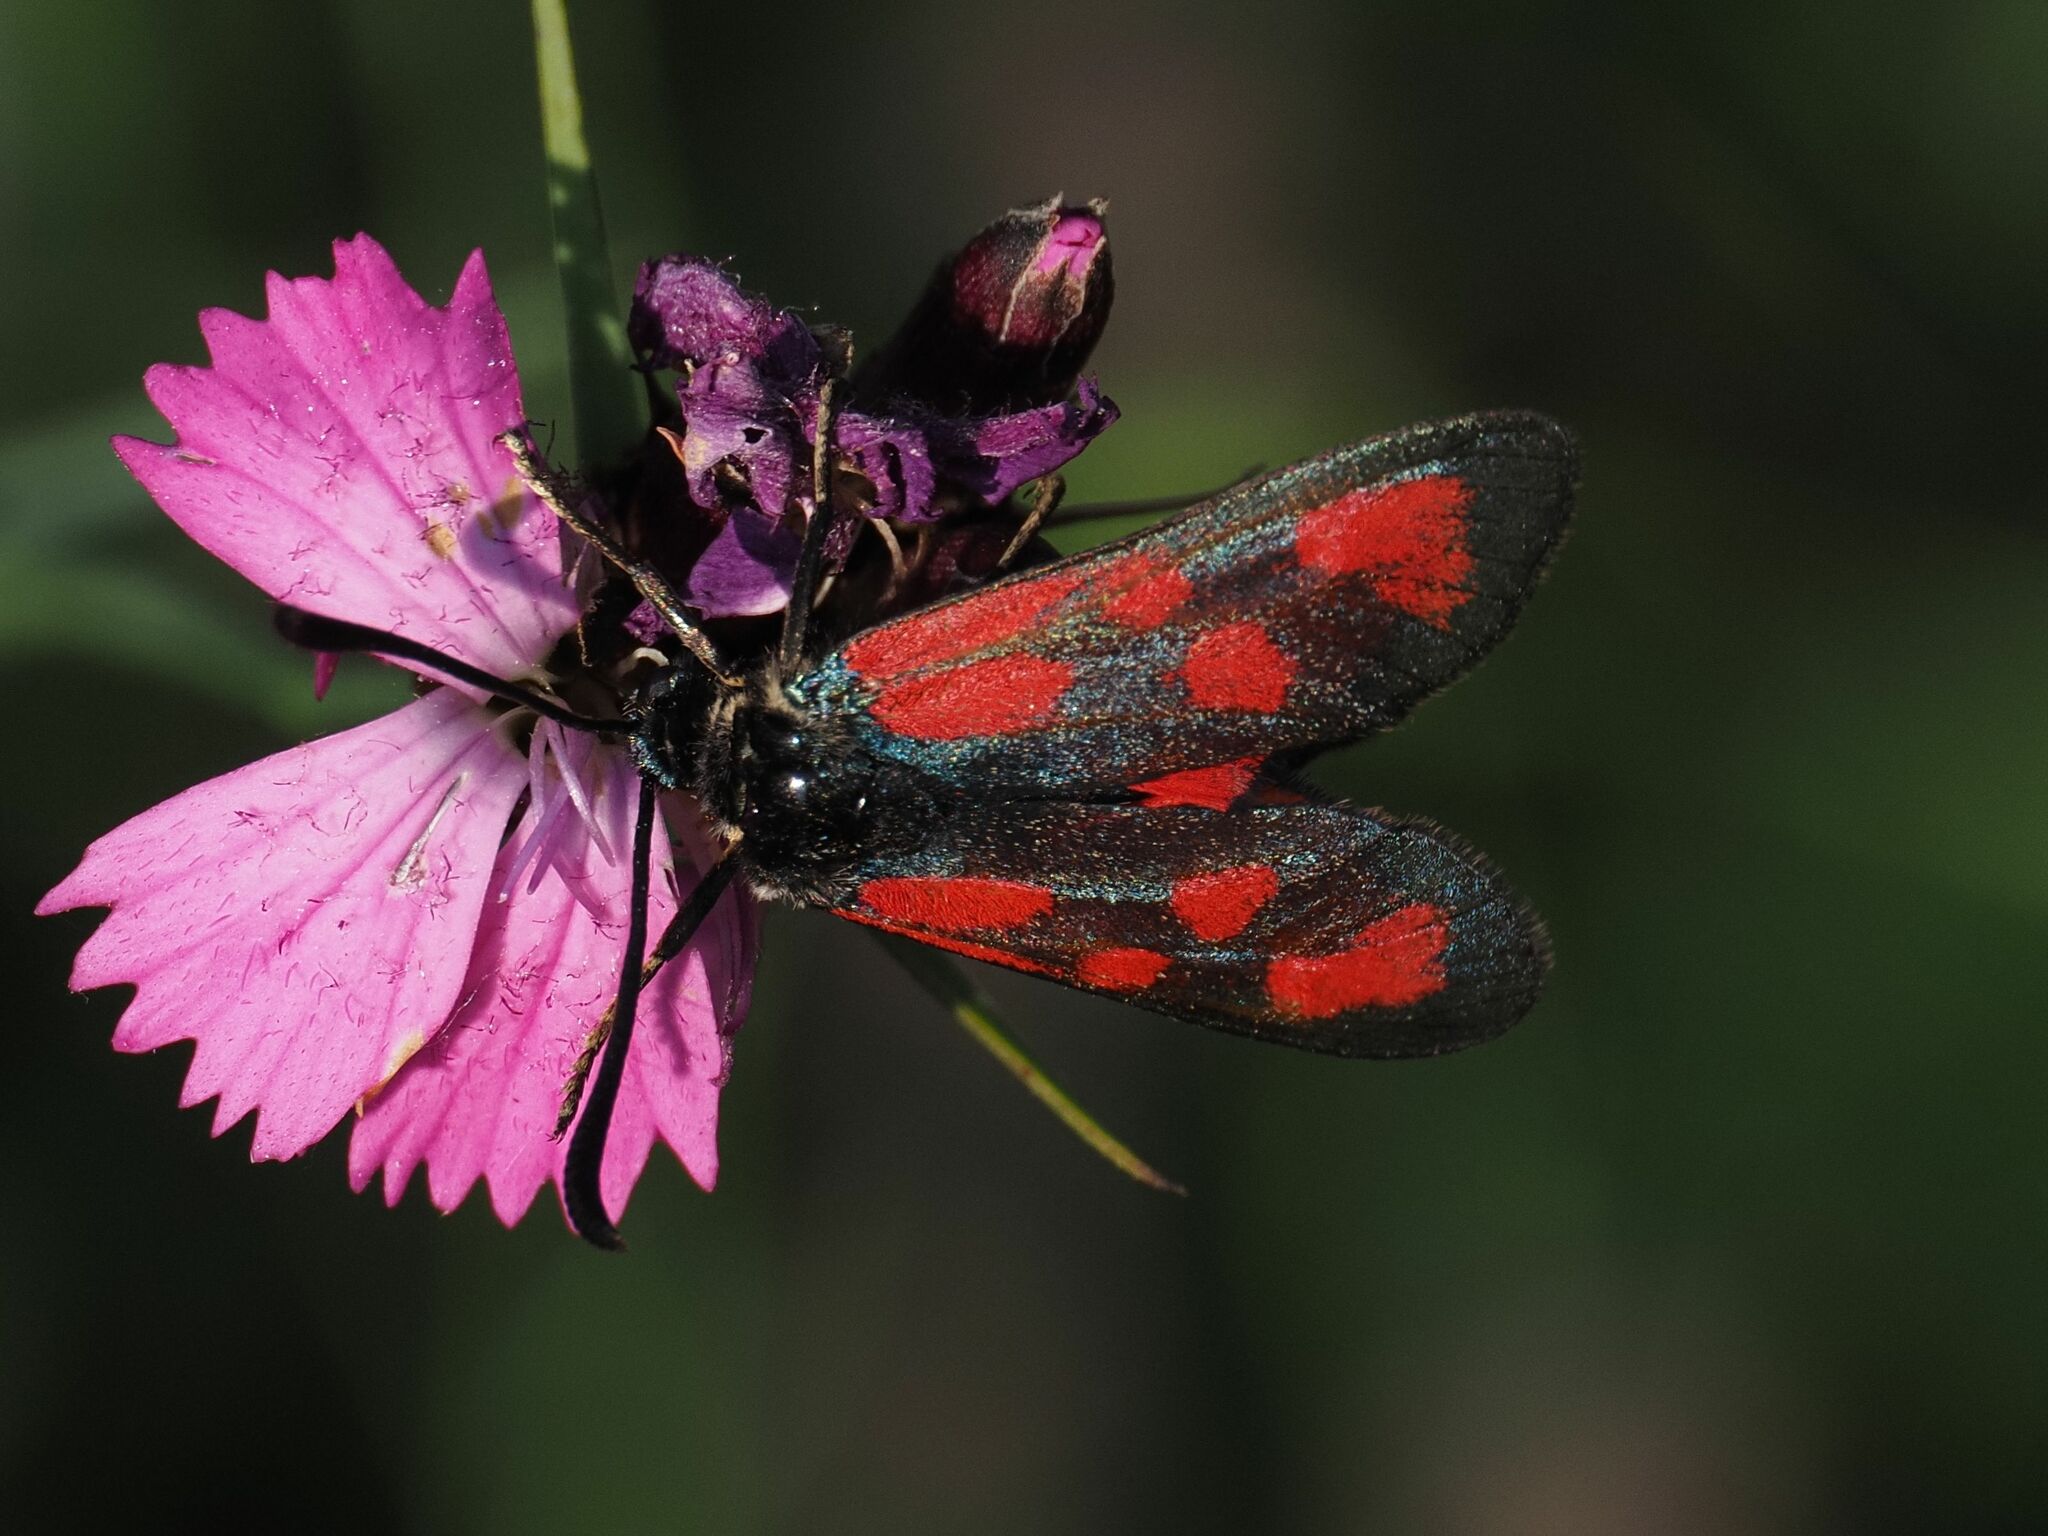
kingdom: Animalia
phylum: Arthropoda
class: Insecta
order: Lepidoptera
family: Zygaenidae
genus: Zygaena
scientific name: Zygaena loti
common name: Slender scotch burnet
